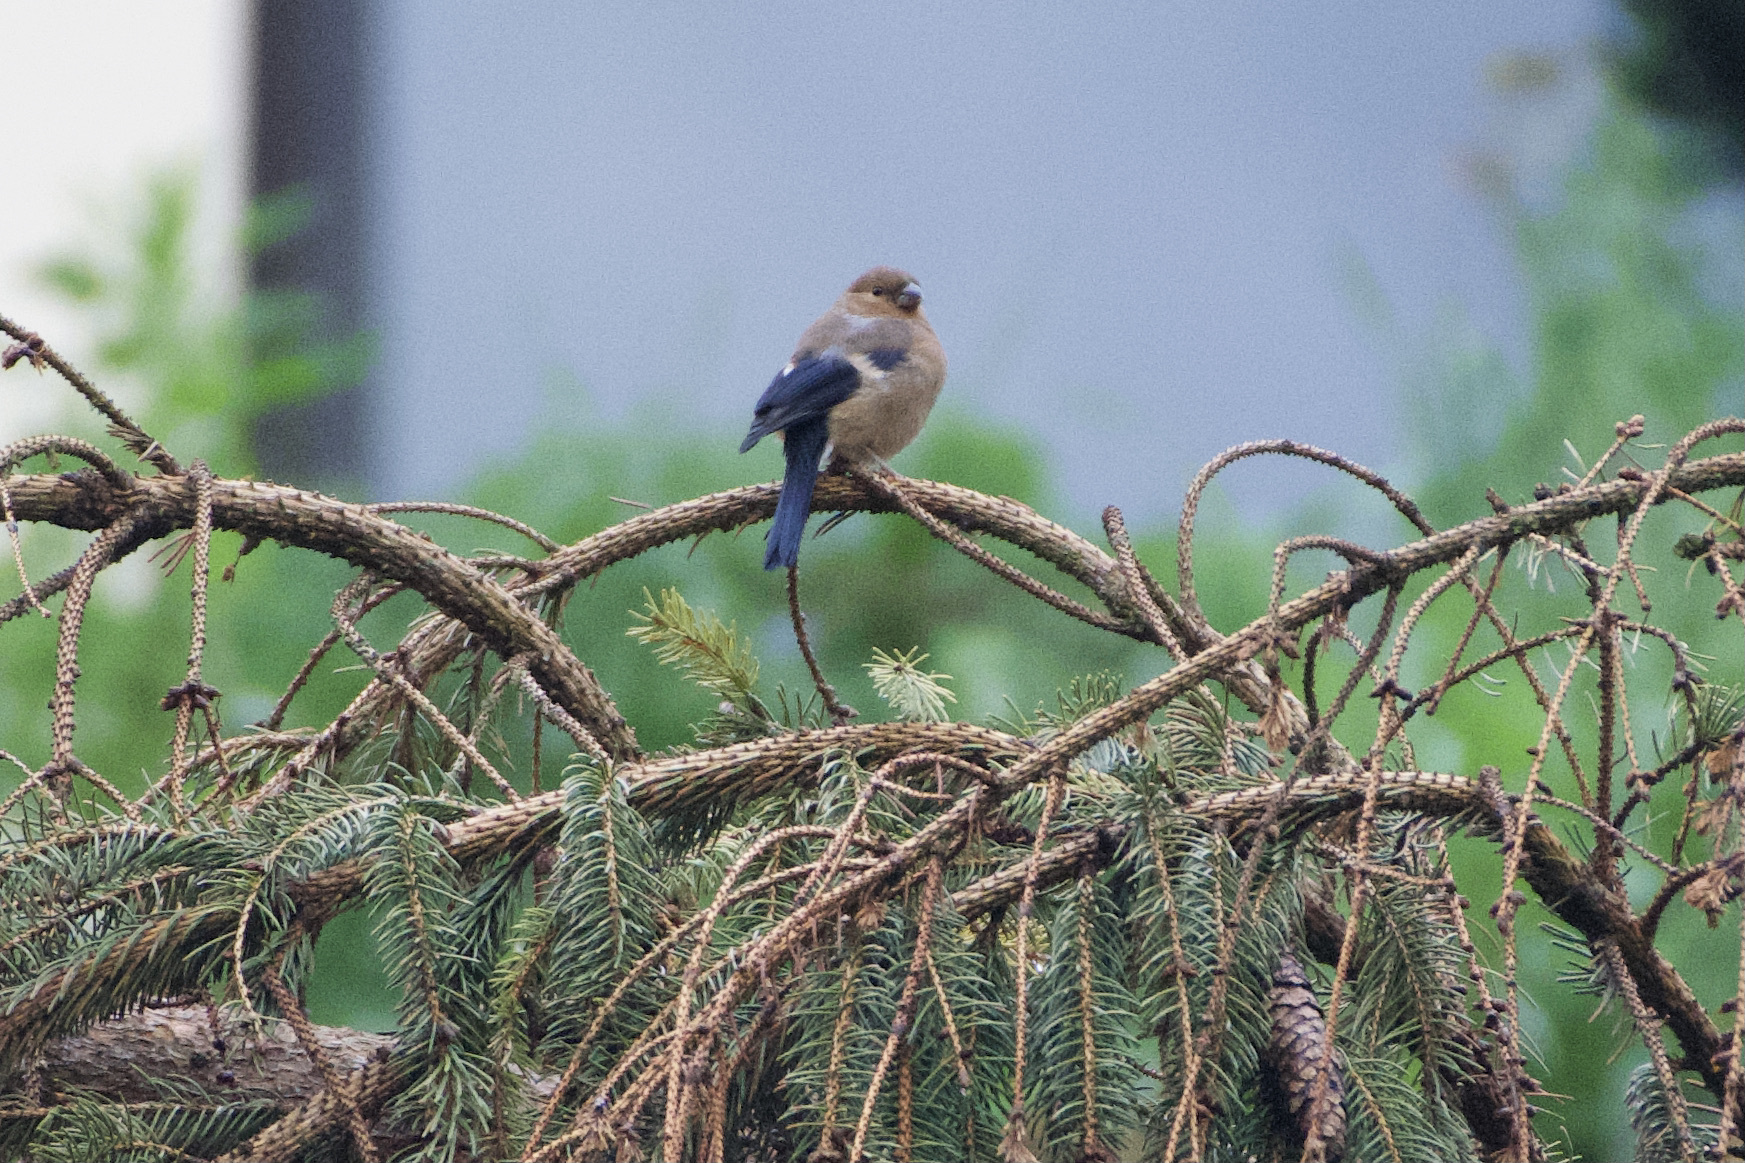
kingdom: Animalia
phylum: Chordata
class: Aves
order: Passeriformes
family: Fringillidae
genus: Pyrrhula
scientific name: Pyrrhula pyrrhula
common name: Eurasian bullfinch
